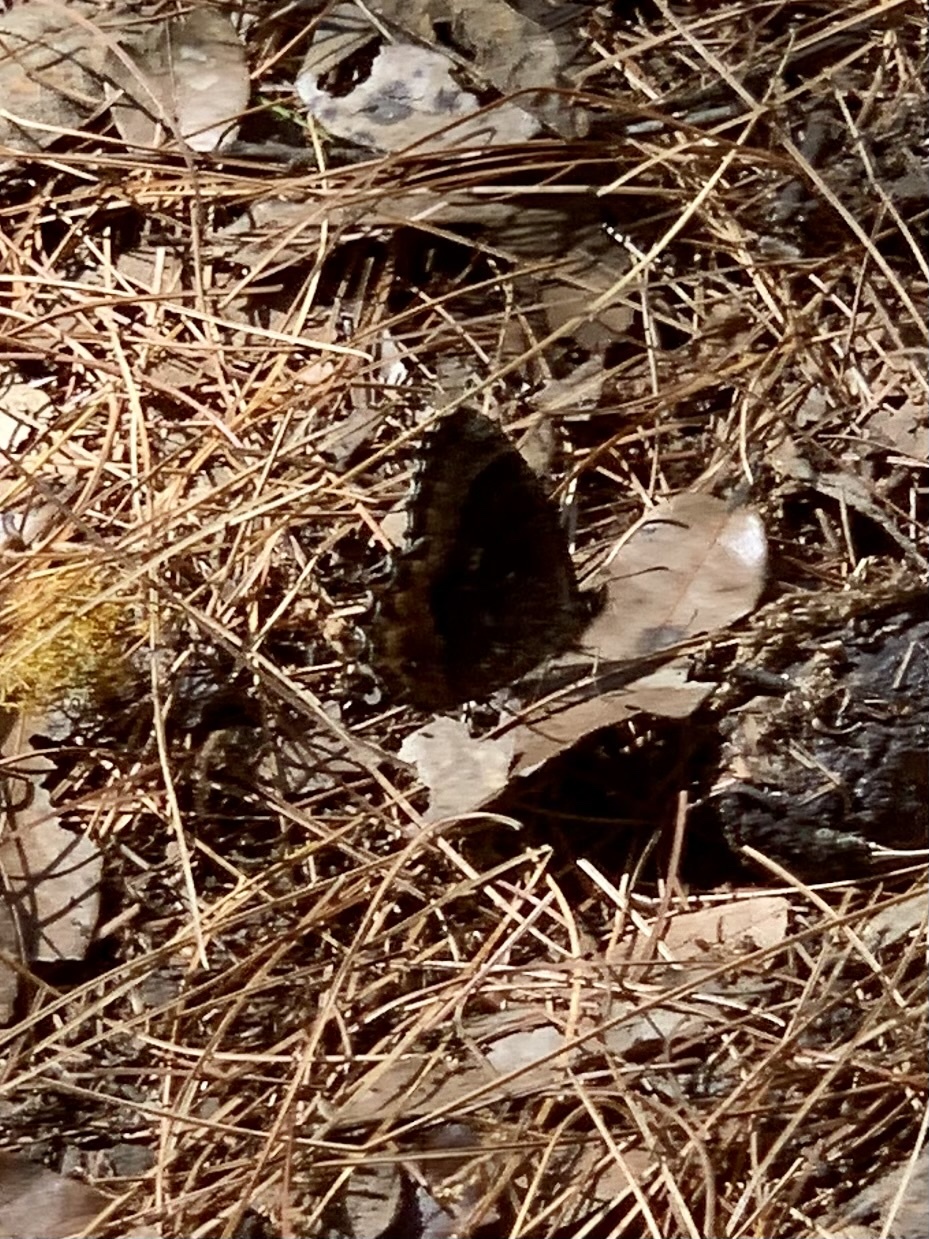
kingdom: Animalia
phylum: Arthropoda
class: Insecta
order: Lepidoptera
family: Nymphalidae
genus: Pedaliodes
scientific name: Pedaliodes napaea
